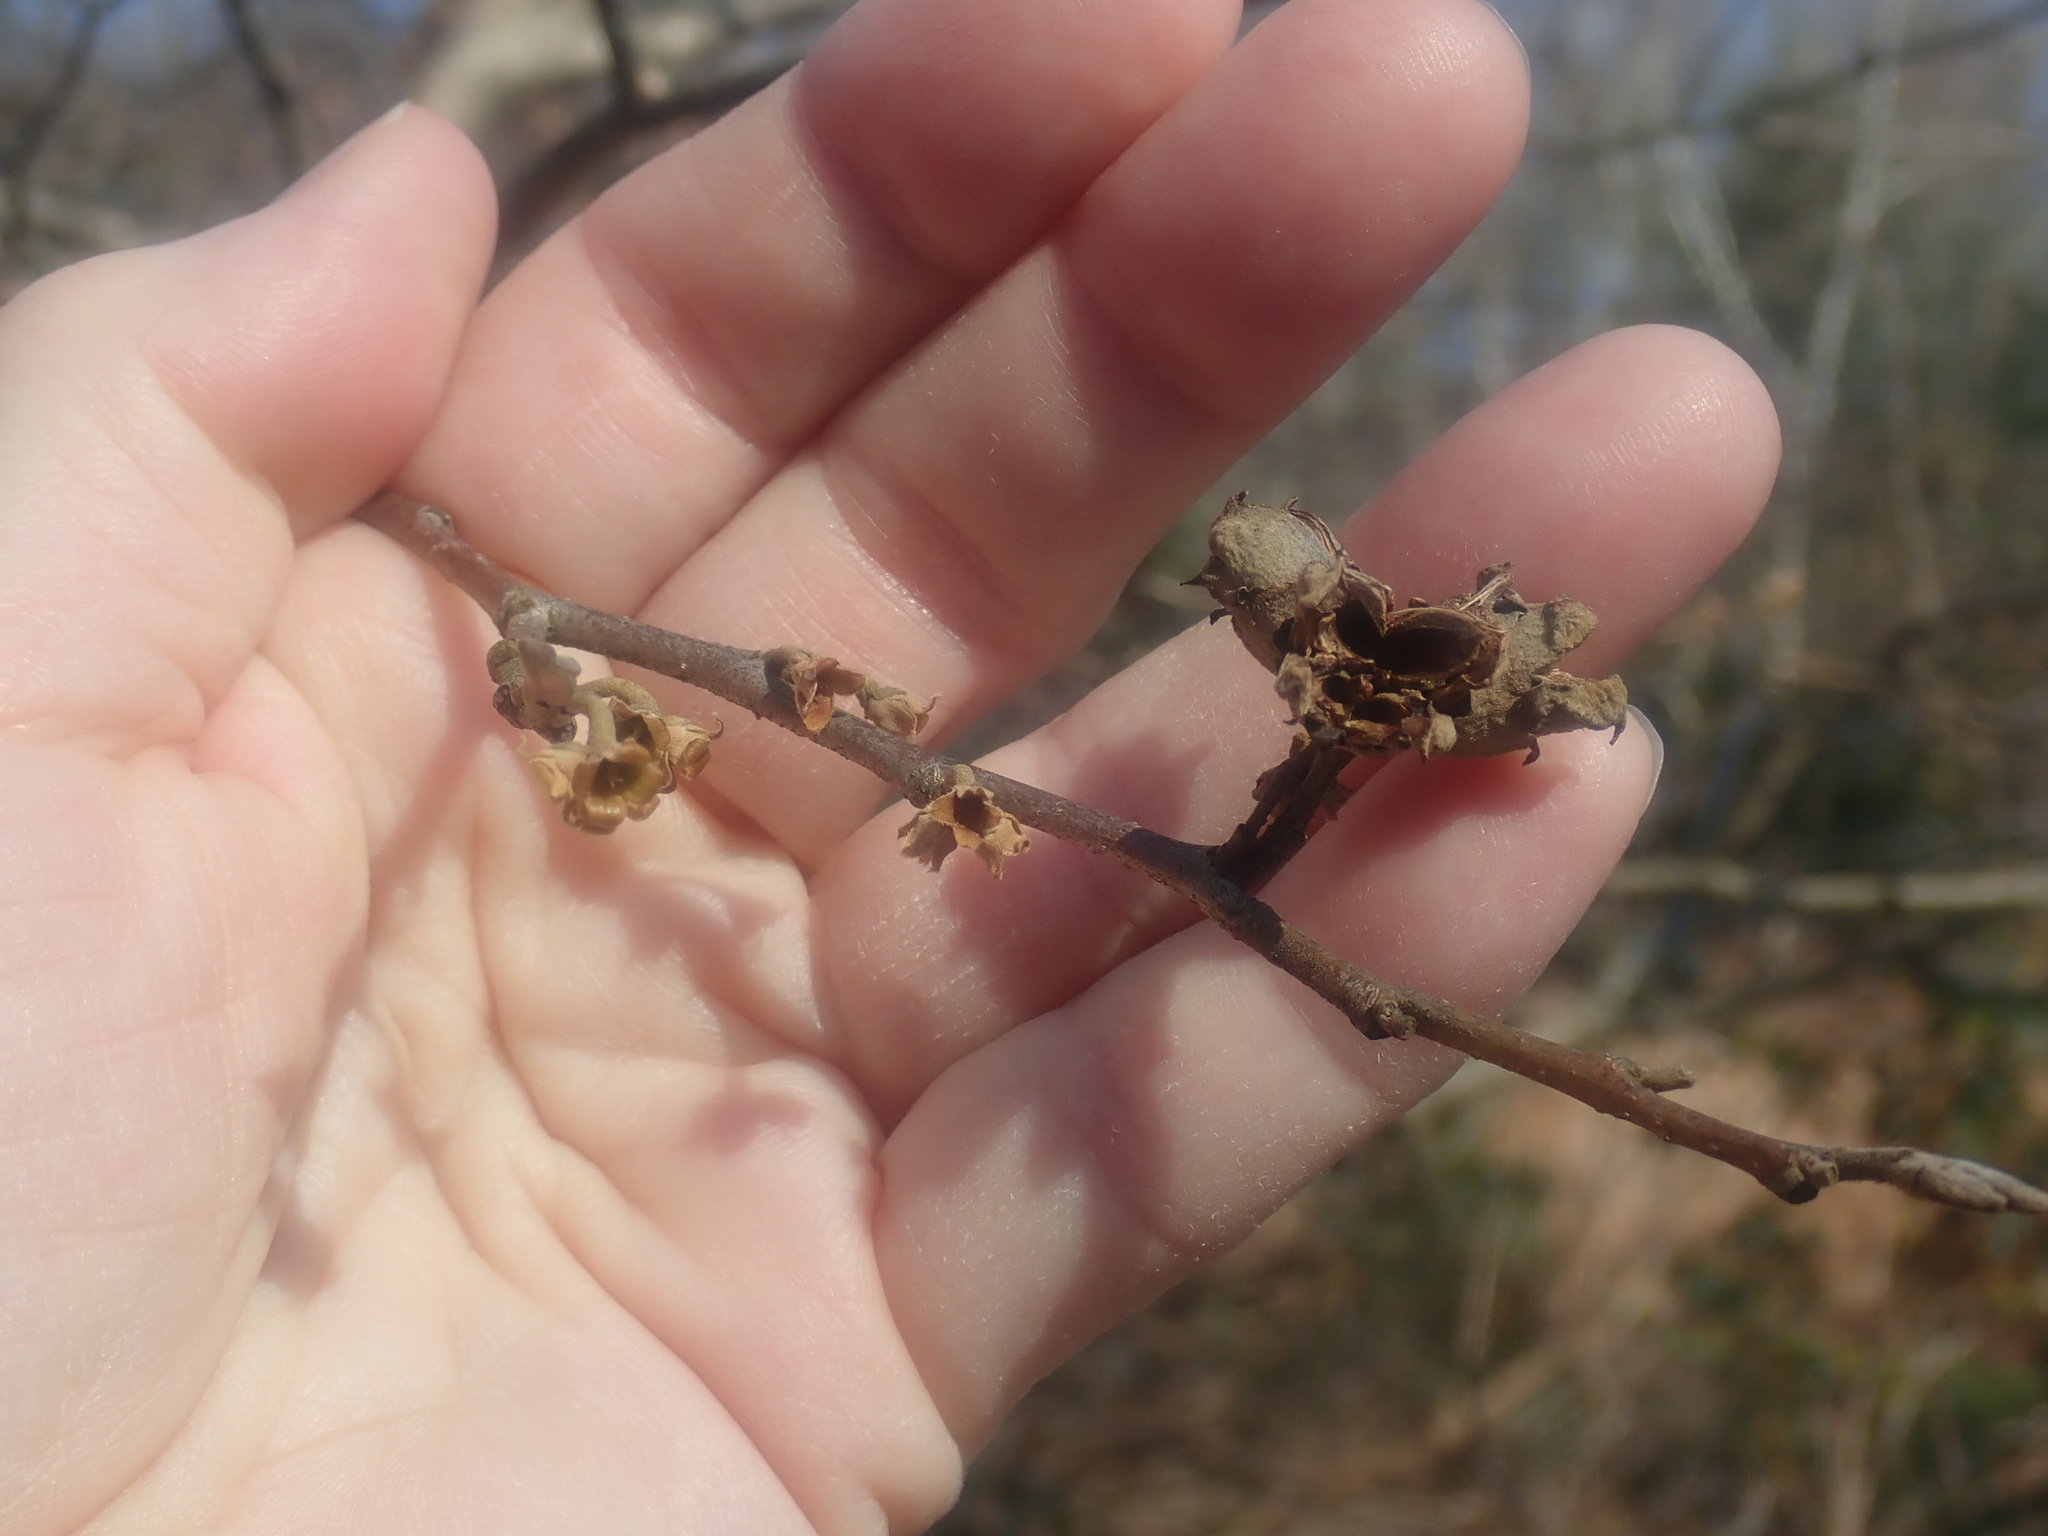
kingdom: Plantae
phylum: Tracheophyta
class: Magnoliopsida
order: Saxifragales
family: Hamamelidaceae
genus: Hamamelis
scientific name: Hamamelis virginiana
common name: Witch-hazel
